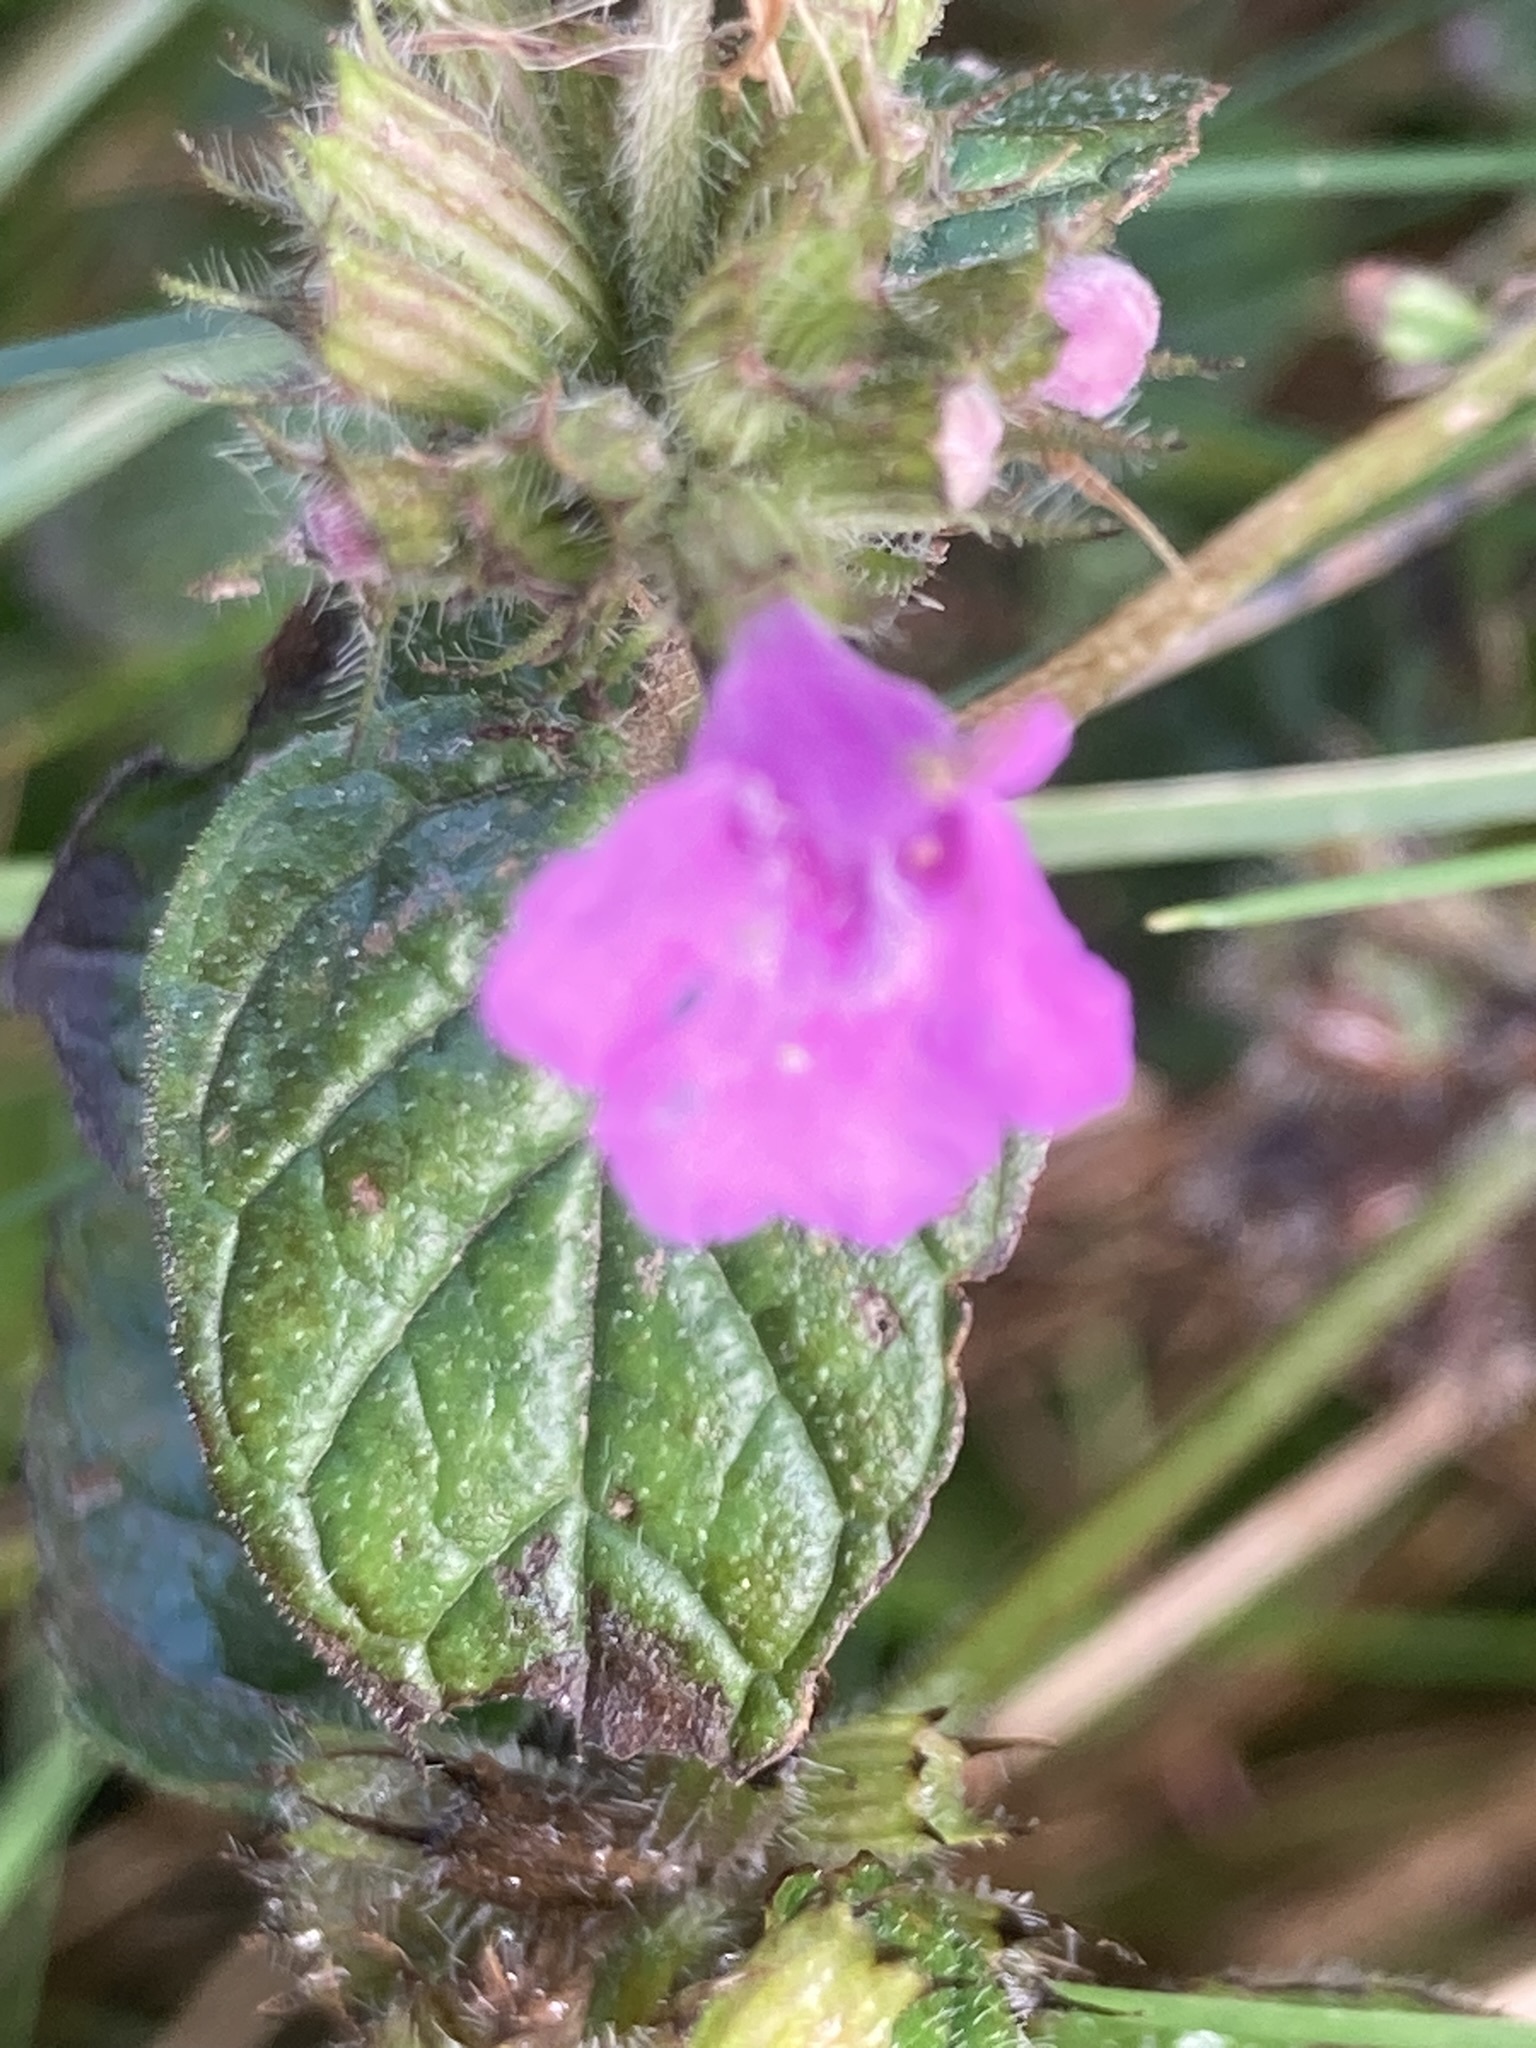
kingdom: Plantae
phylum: Tracheophyta
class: Magnoliopsida
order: Lamiales
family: Lamiaceae
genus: Clinopodium
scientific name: Clinopodium vulgare
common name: Wild basil
